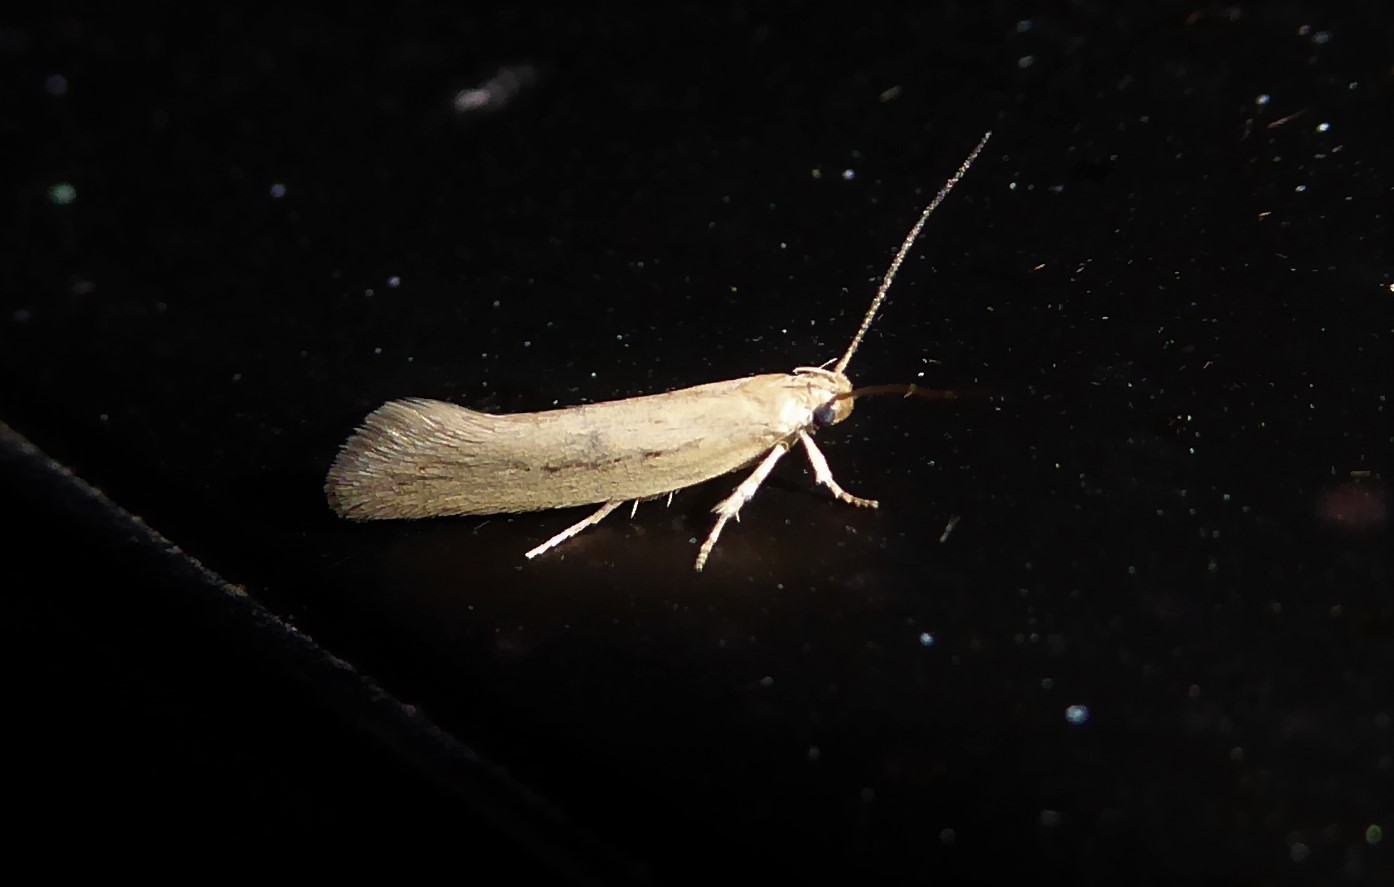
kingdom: Animalia
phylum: Arthropoda
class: Insecta
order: Lepidoptera
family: Oecophoridae
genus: Tingena
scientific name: Tingena maranta
